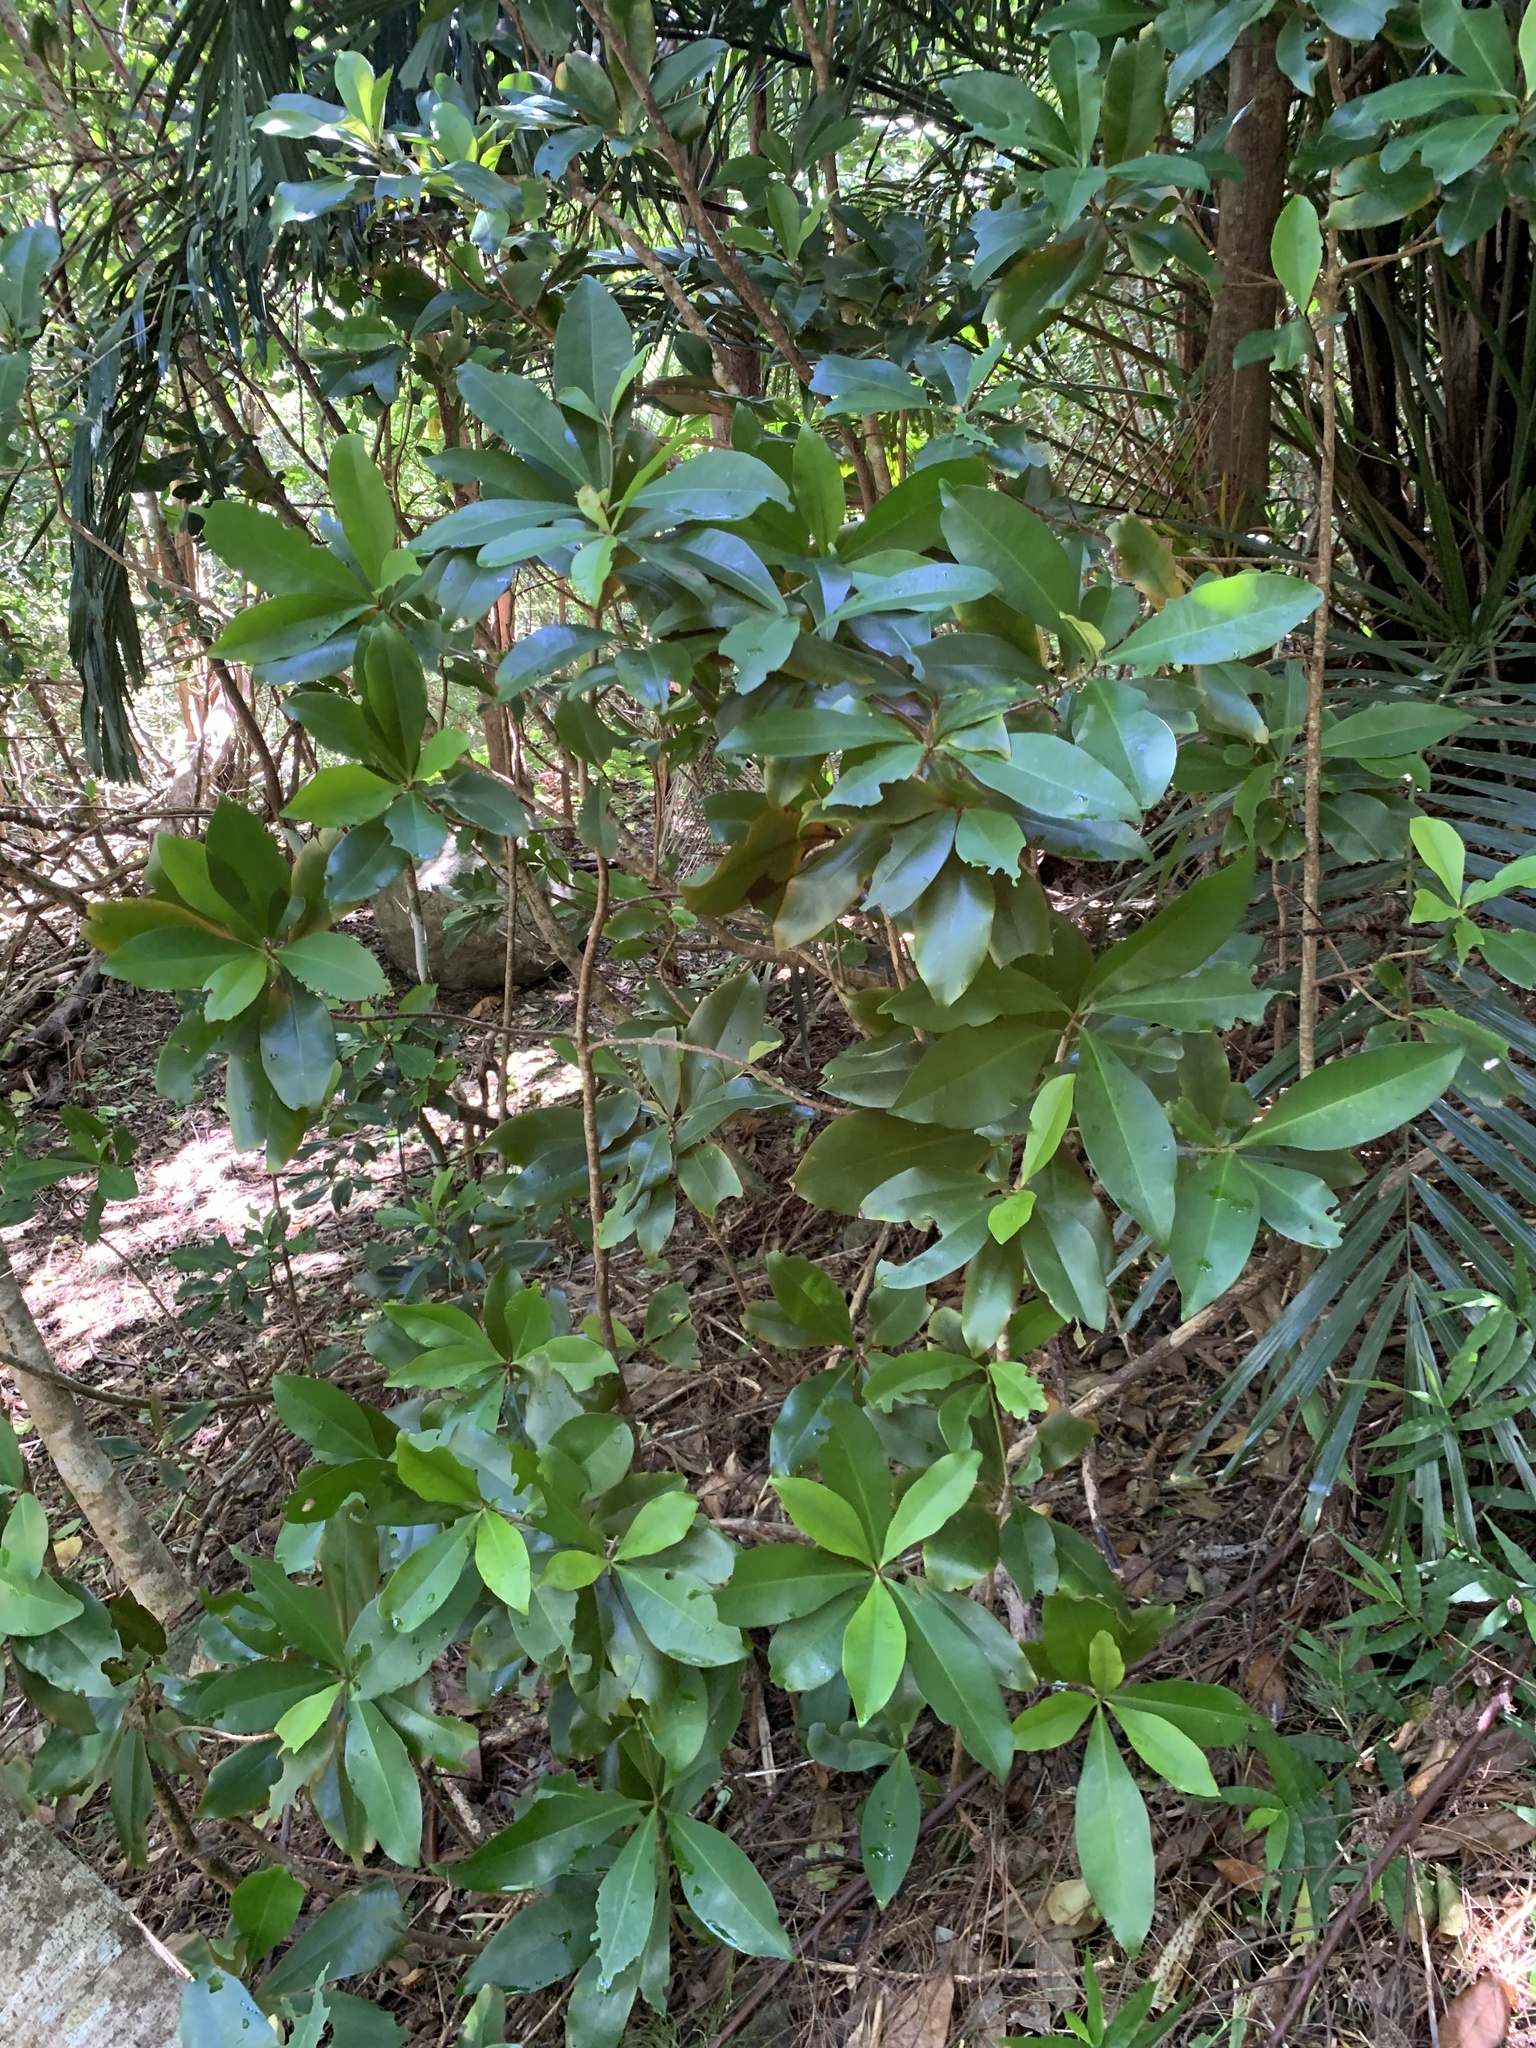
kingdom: Plantae
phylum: Tracheophyta
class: Magnoliopsida
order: Ericales
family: Primulaceae
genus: Ardisia
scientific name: Ardisia sieboldii
